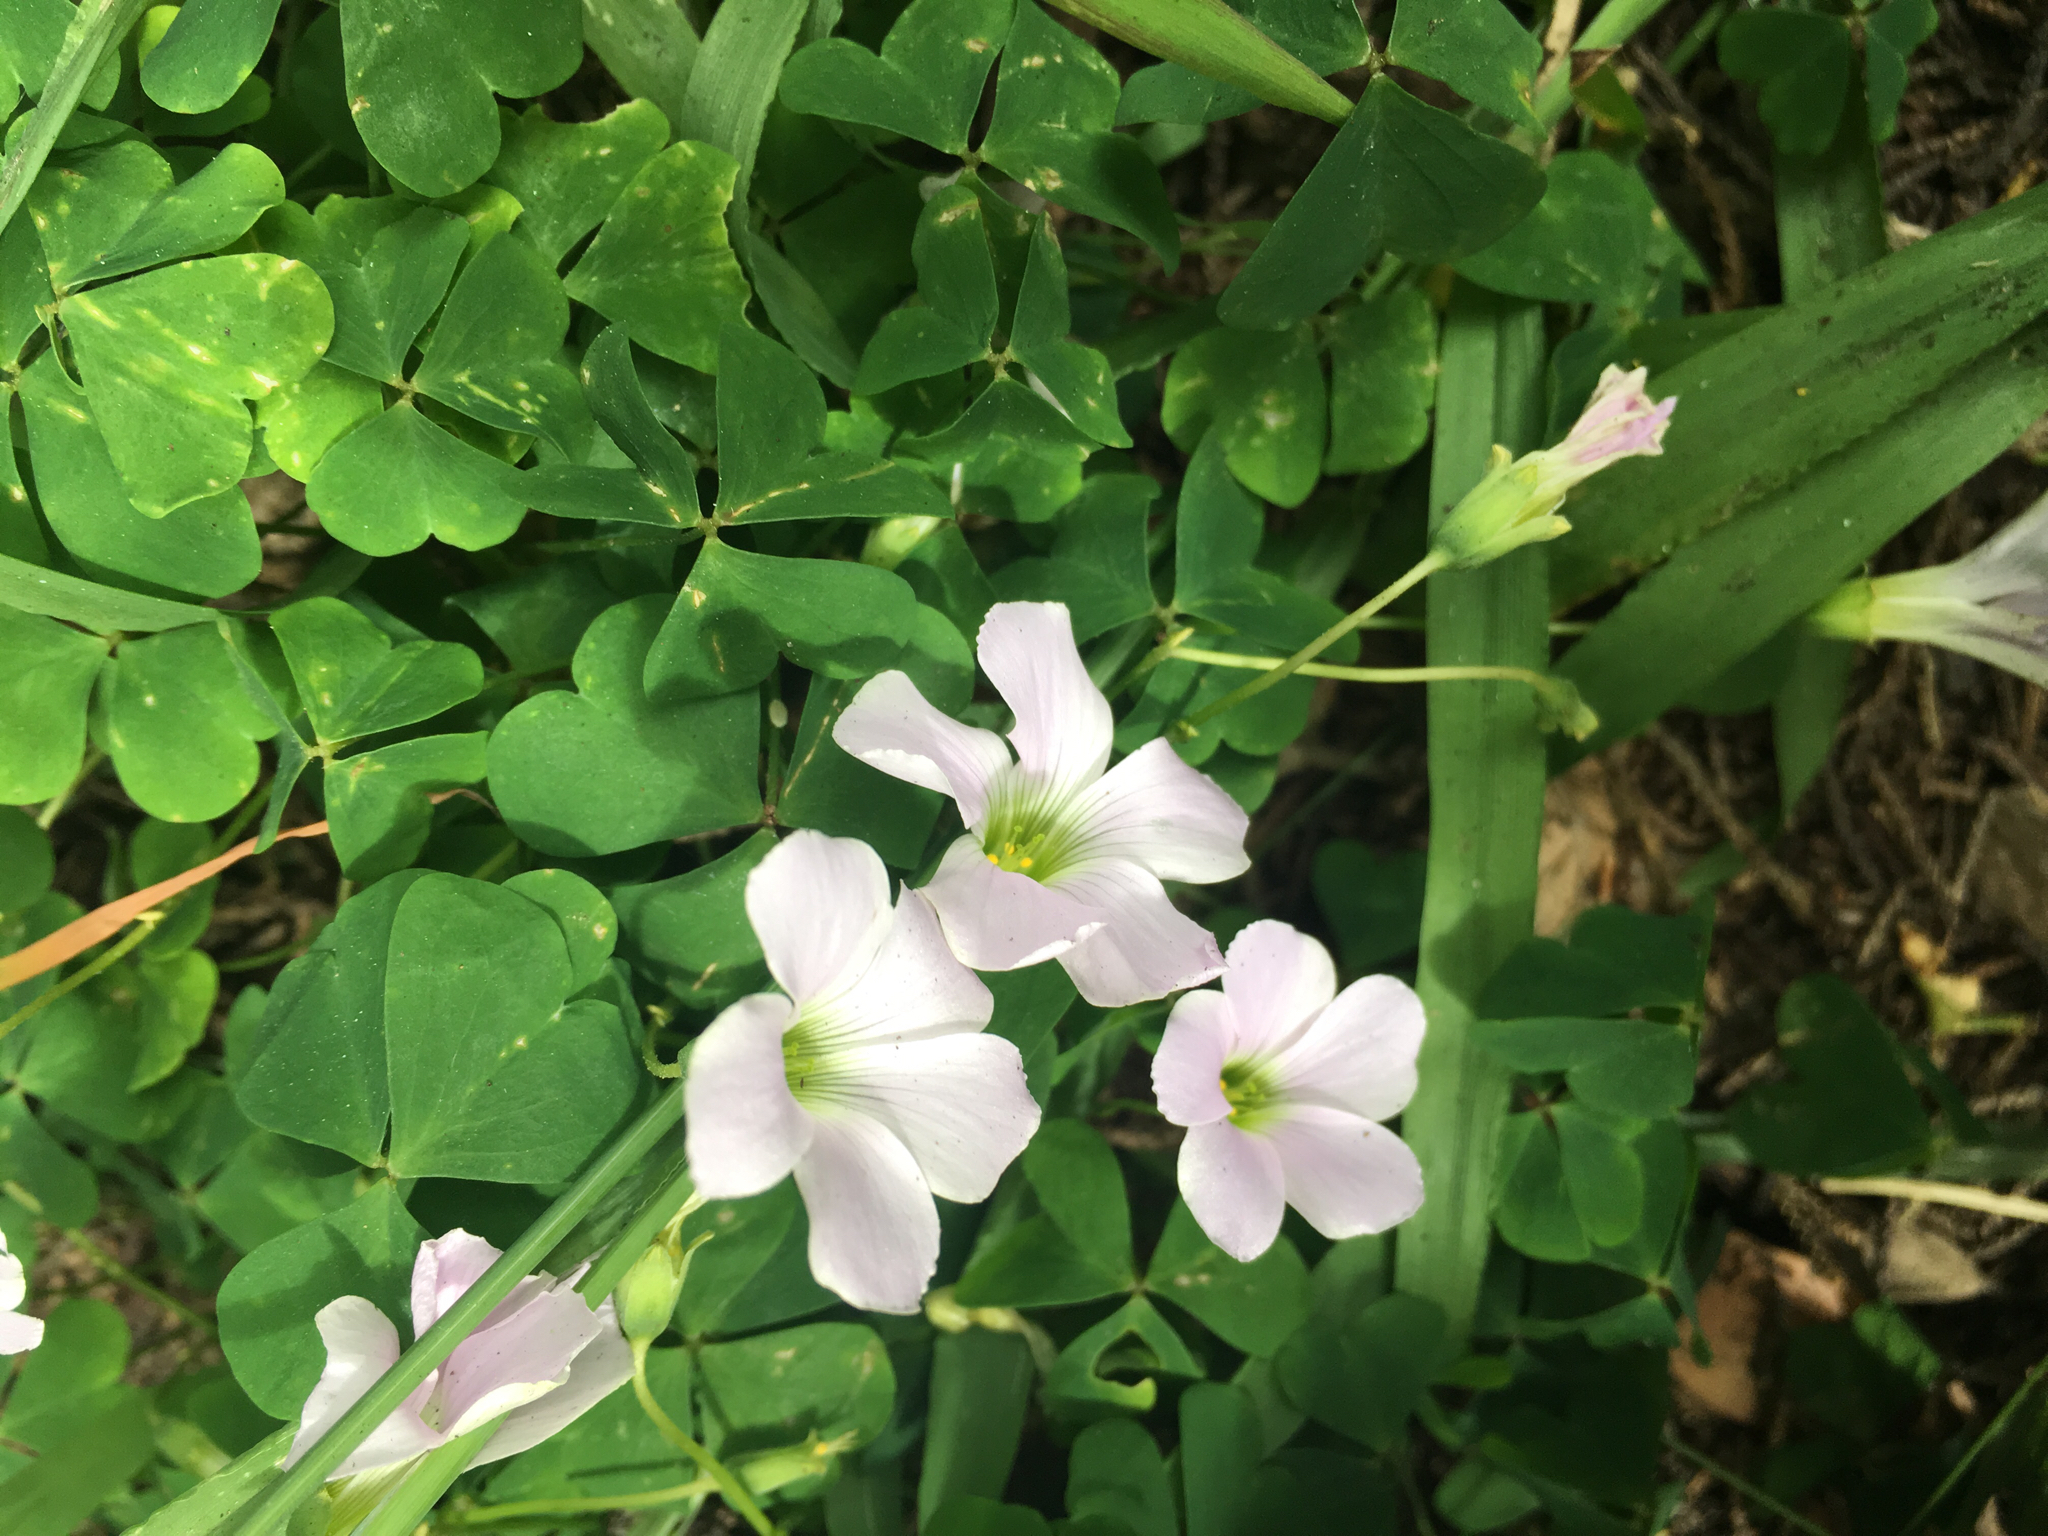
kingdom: Plantae
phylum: Tracheophyta
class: Magnoliopsida
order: Oxalidales
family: Oxalidaceae
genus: Oxalis
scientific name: Oxalis incarnata
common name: Pale pink-sorrel
